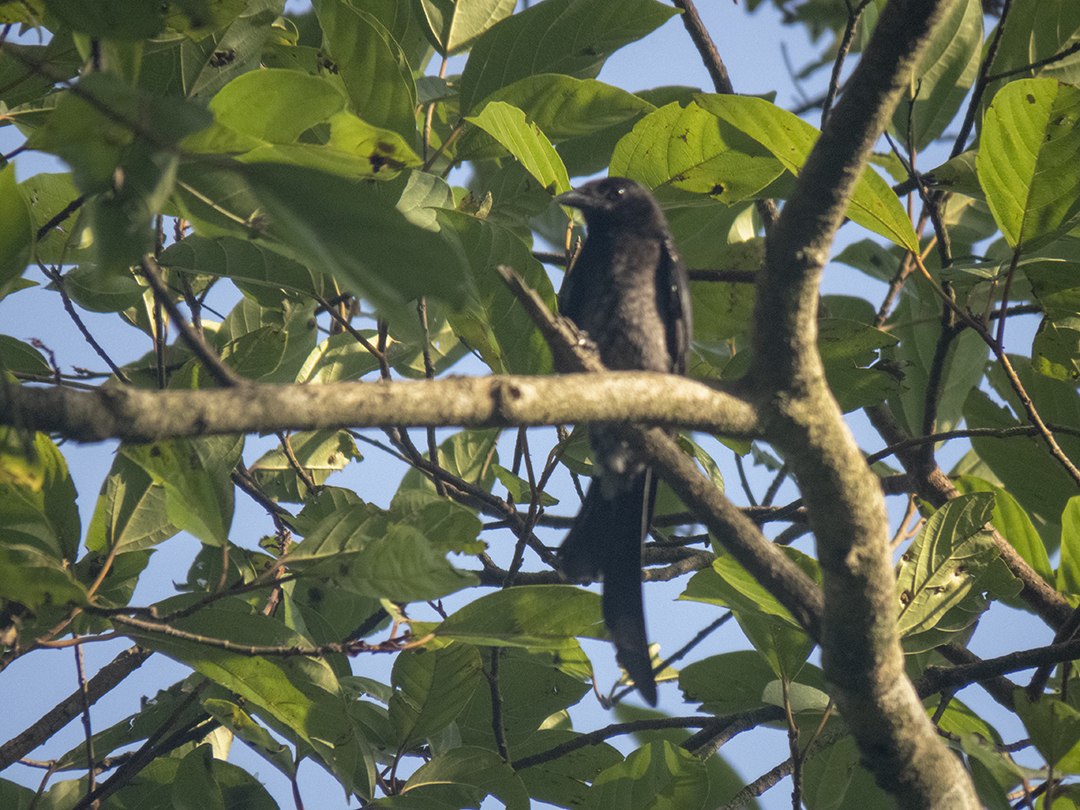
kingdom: Animalia
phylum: Chordata
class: Aves
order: Passeriformes
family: Dicruridae
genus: Dicrurus
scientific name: Dicrurus macrocercus
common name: Black drongo
